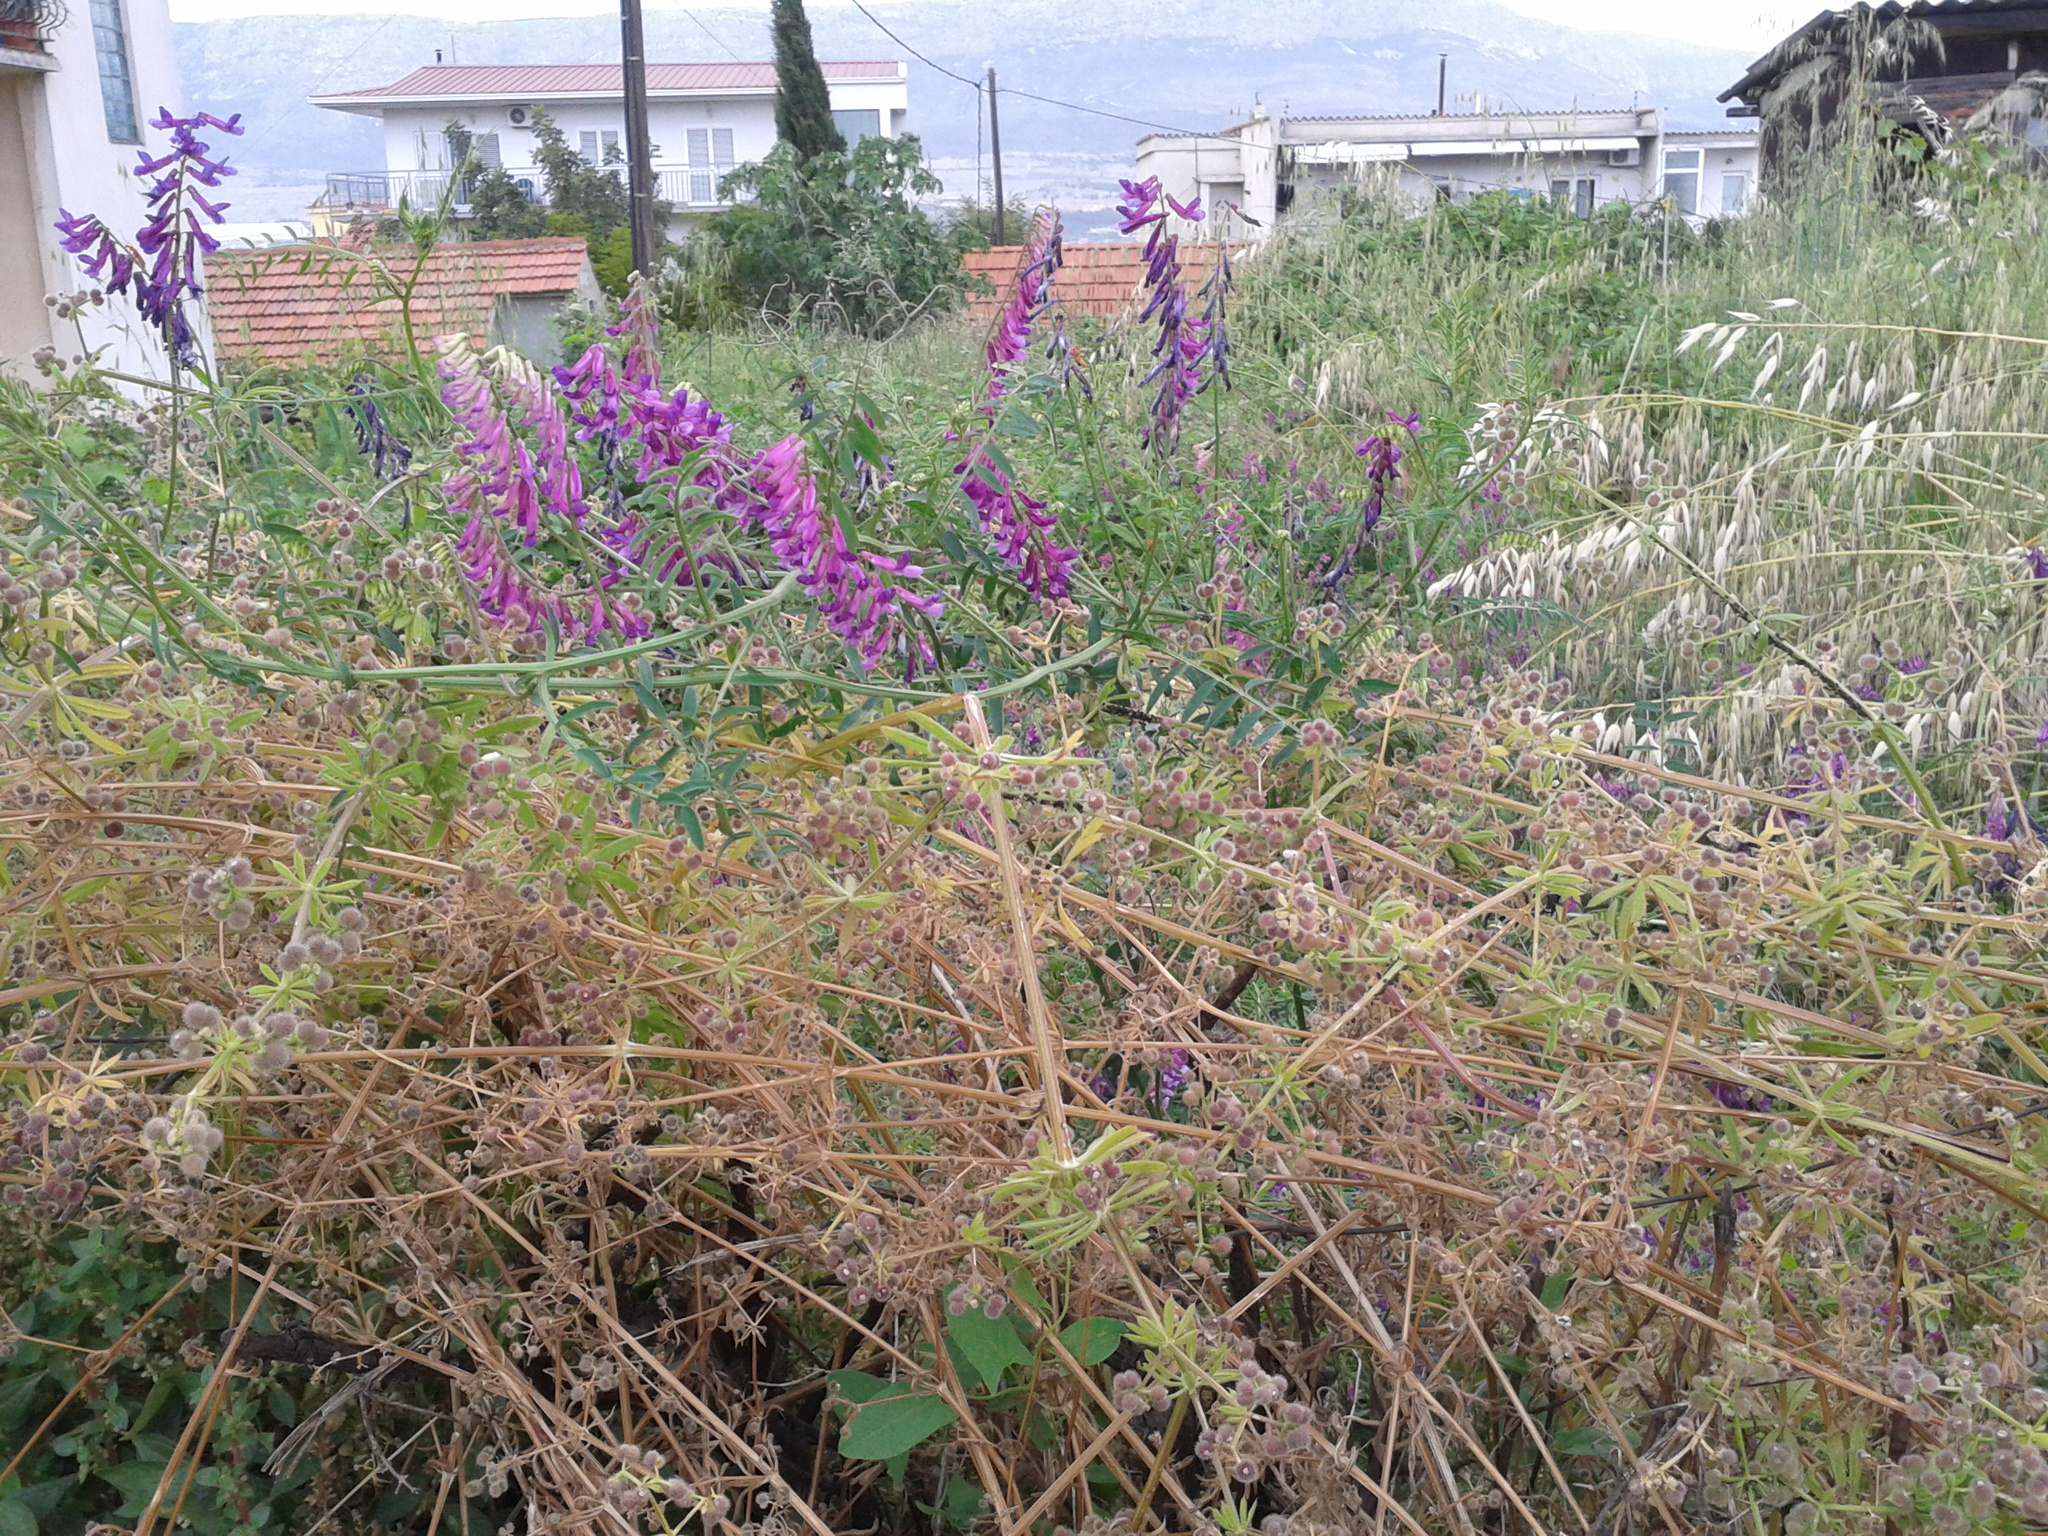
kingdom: Plantae
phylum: Tracheophyta
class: Magnoliopsida
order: Fabales
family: Fabaceae
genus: Vicia
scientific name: Vicia villosa
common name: Fodder vetch
